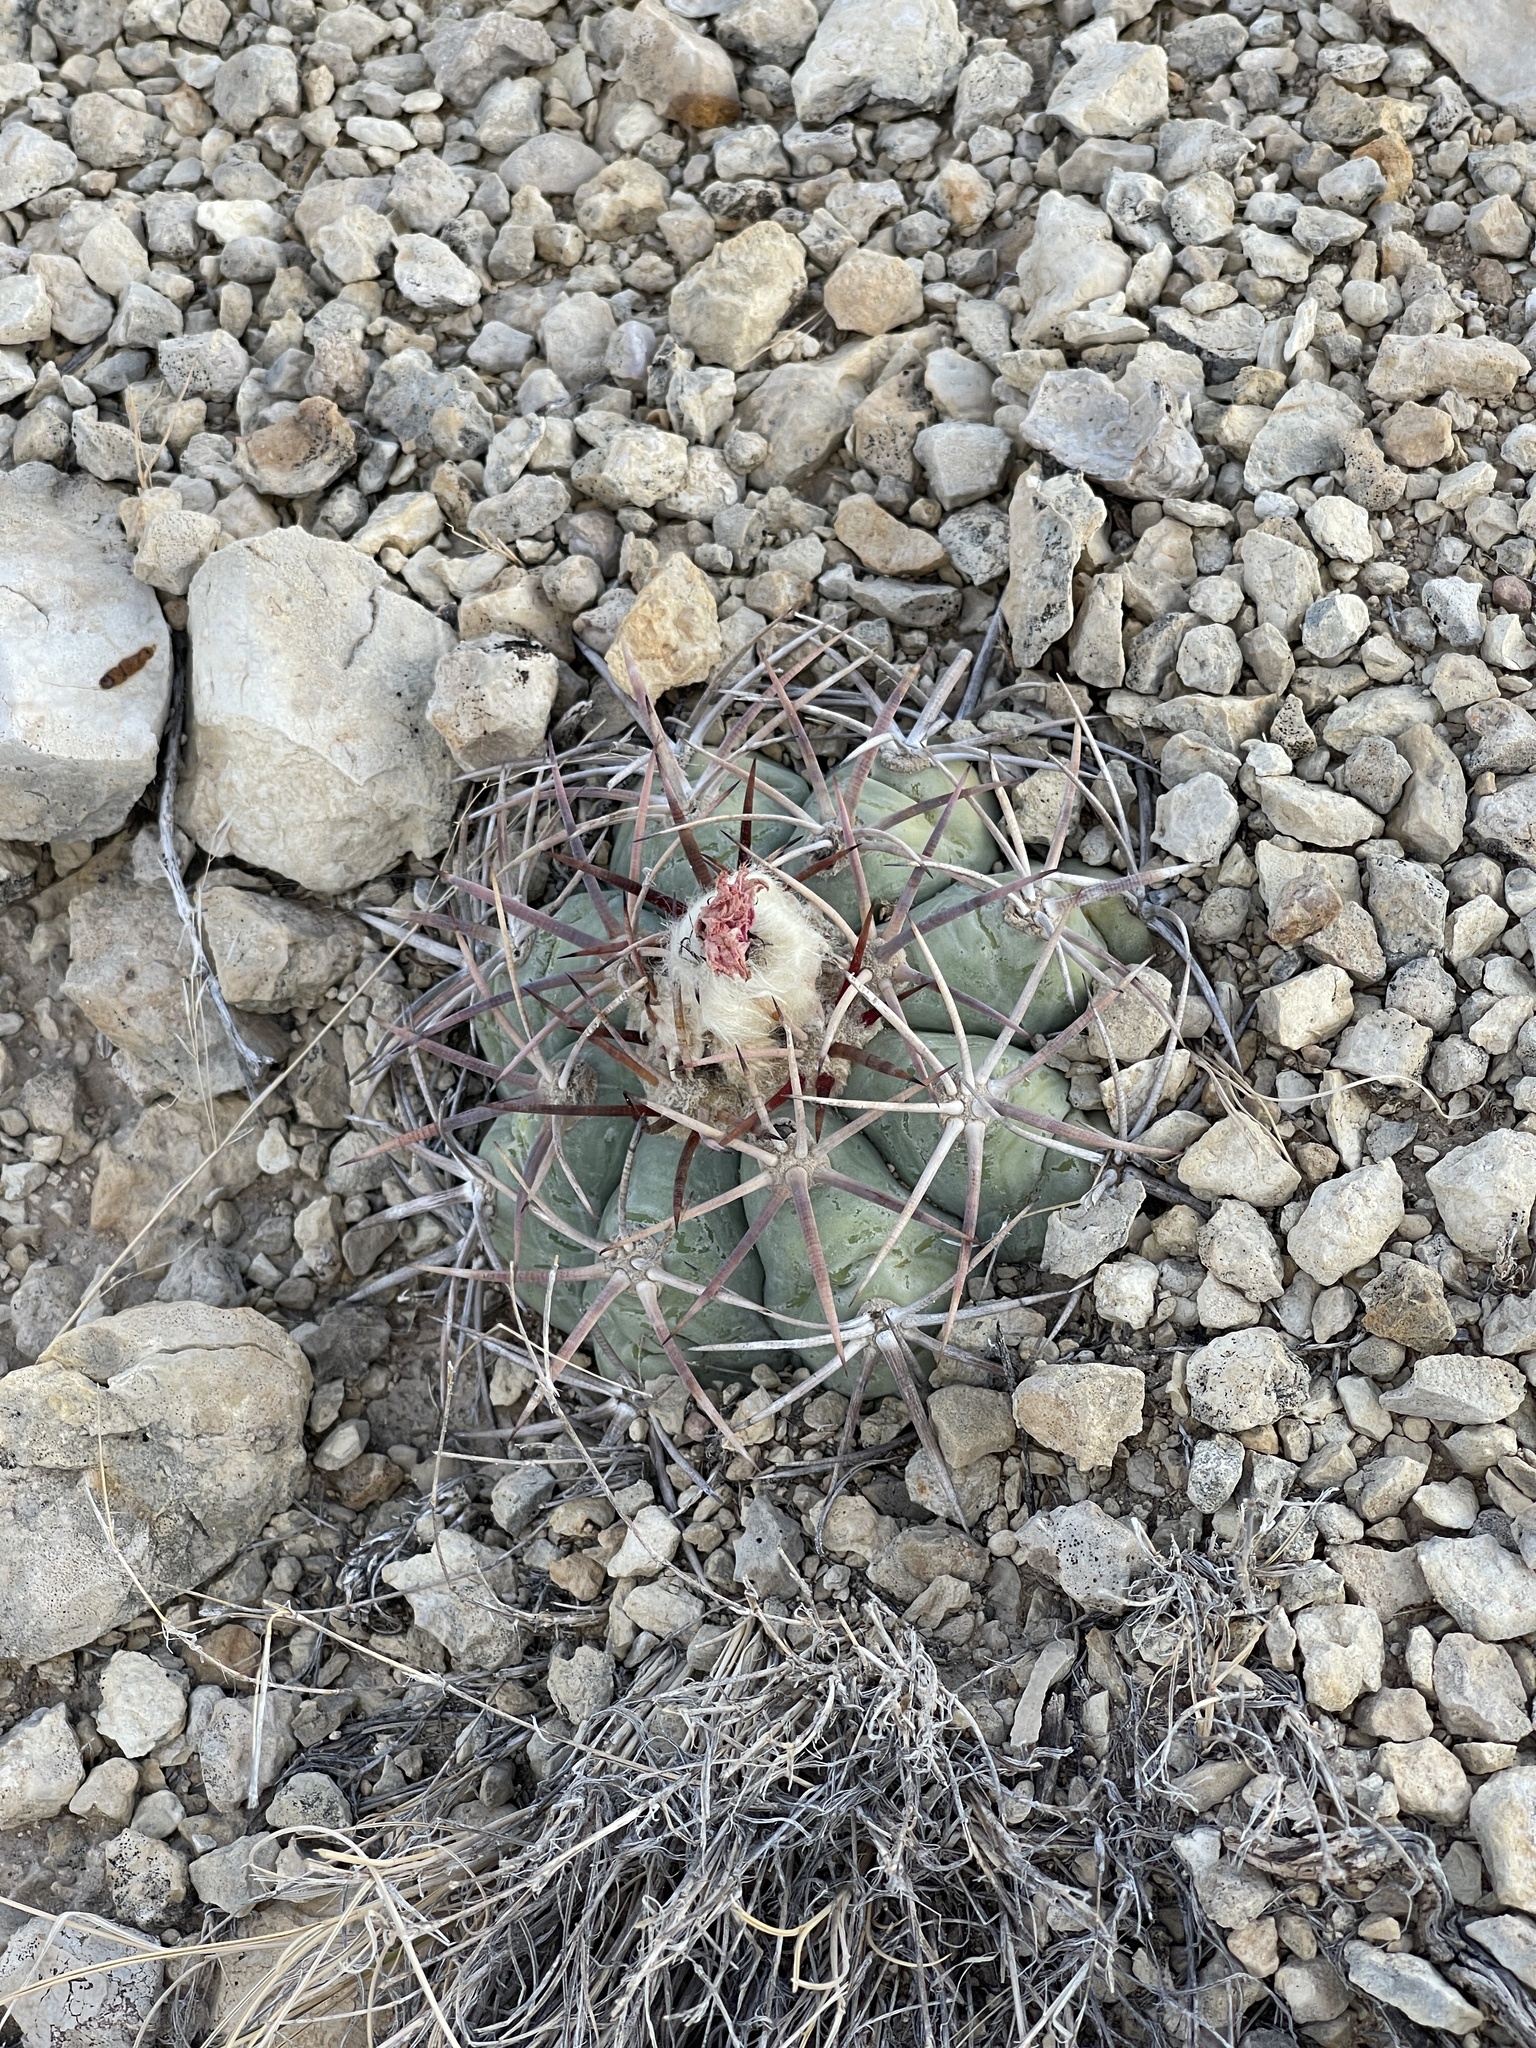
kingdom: Plantae
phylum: Tracheophyta
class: Magnoliopsida
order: Caryophyllales
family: Cactaceae
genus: Echinocactus
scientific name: Echinocactus horizonthalonius
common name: Devilshead
